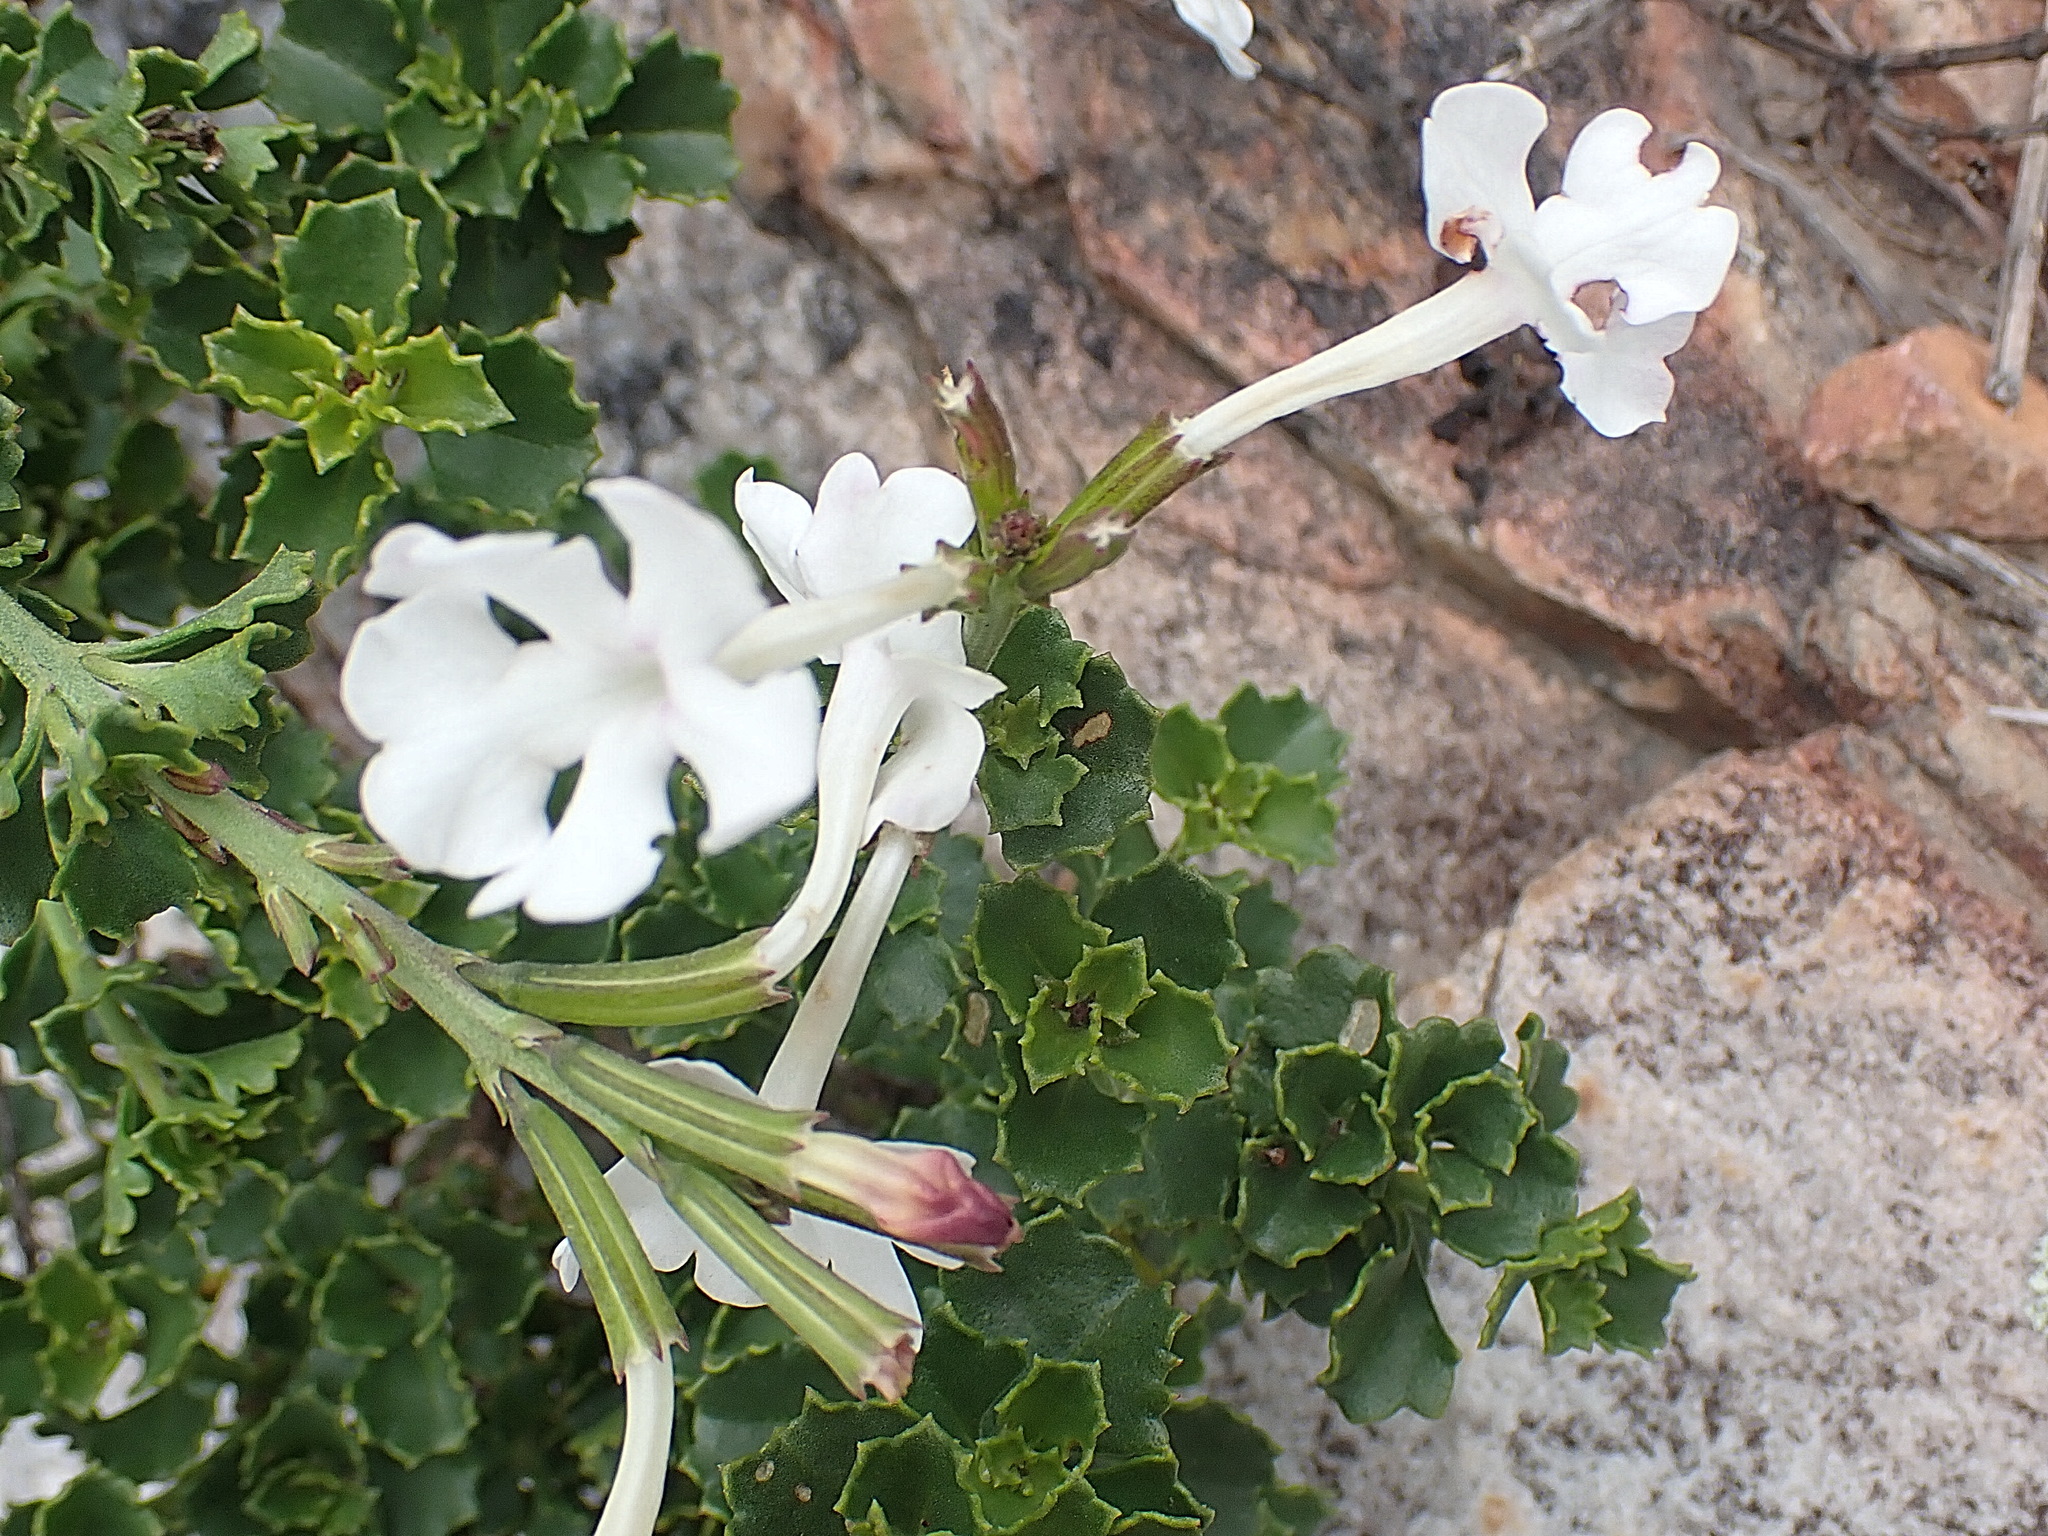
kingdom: Plantae
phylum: Tracheophyta
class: Magnoliopsida
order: Lamiales
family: Verbenaceae
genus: Chascanum
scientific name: Chascanum cuneifolium
